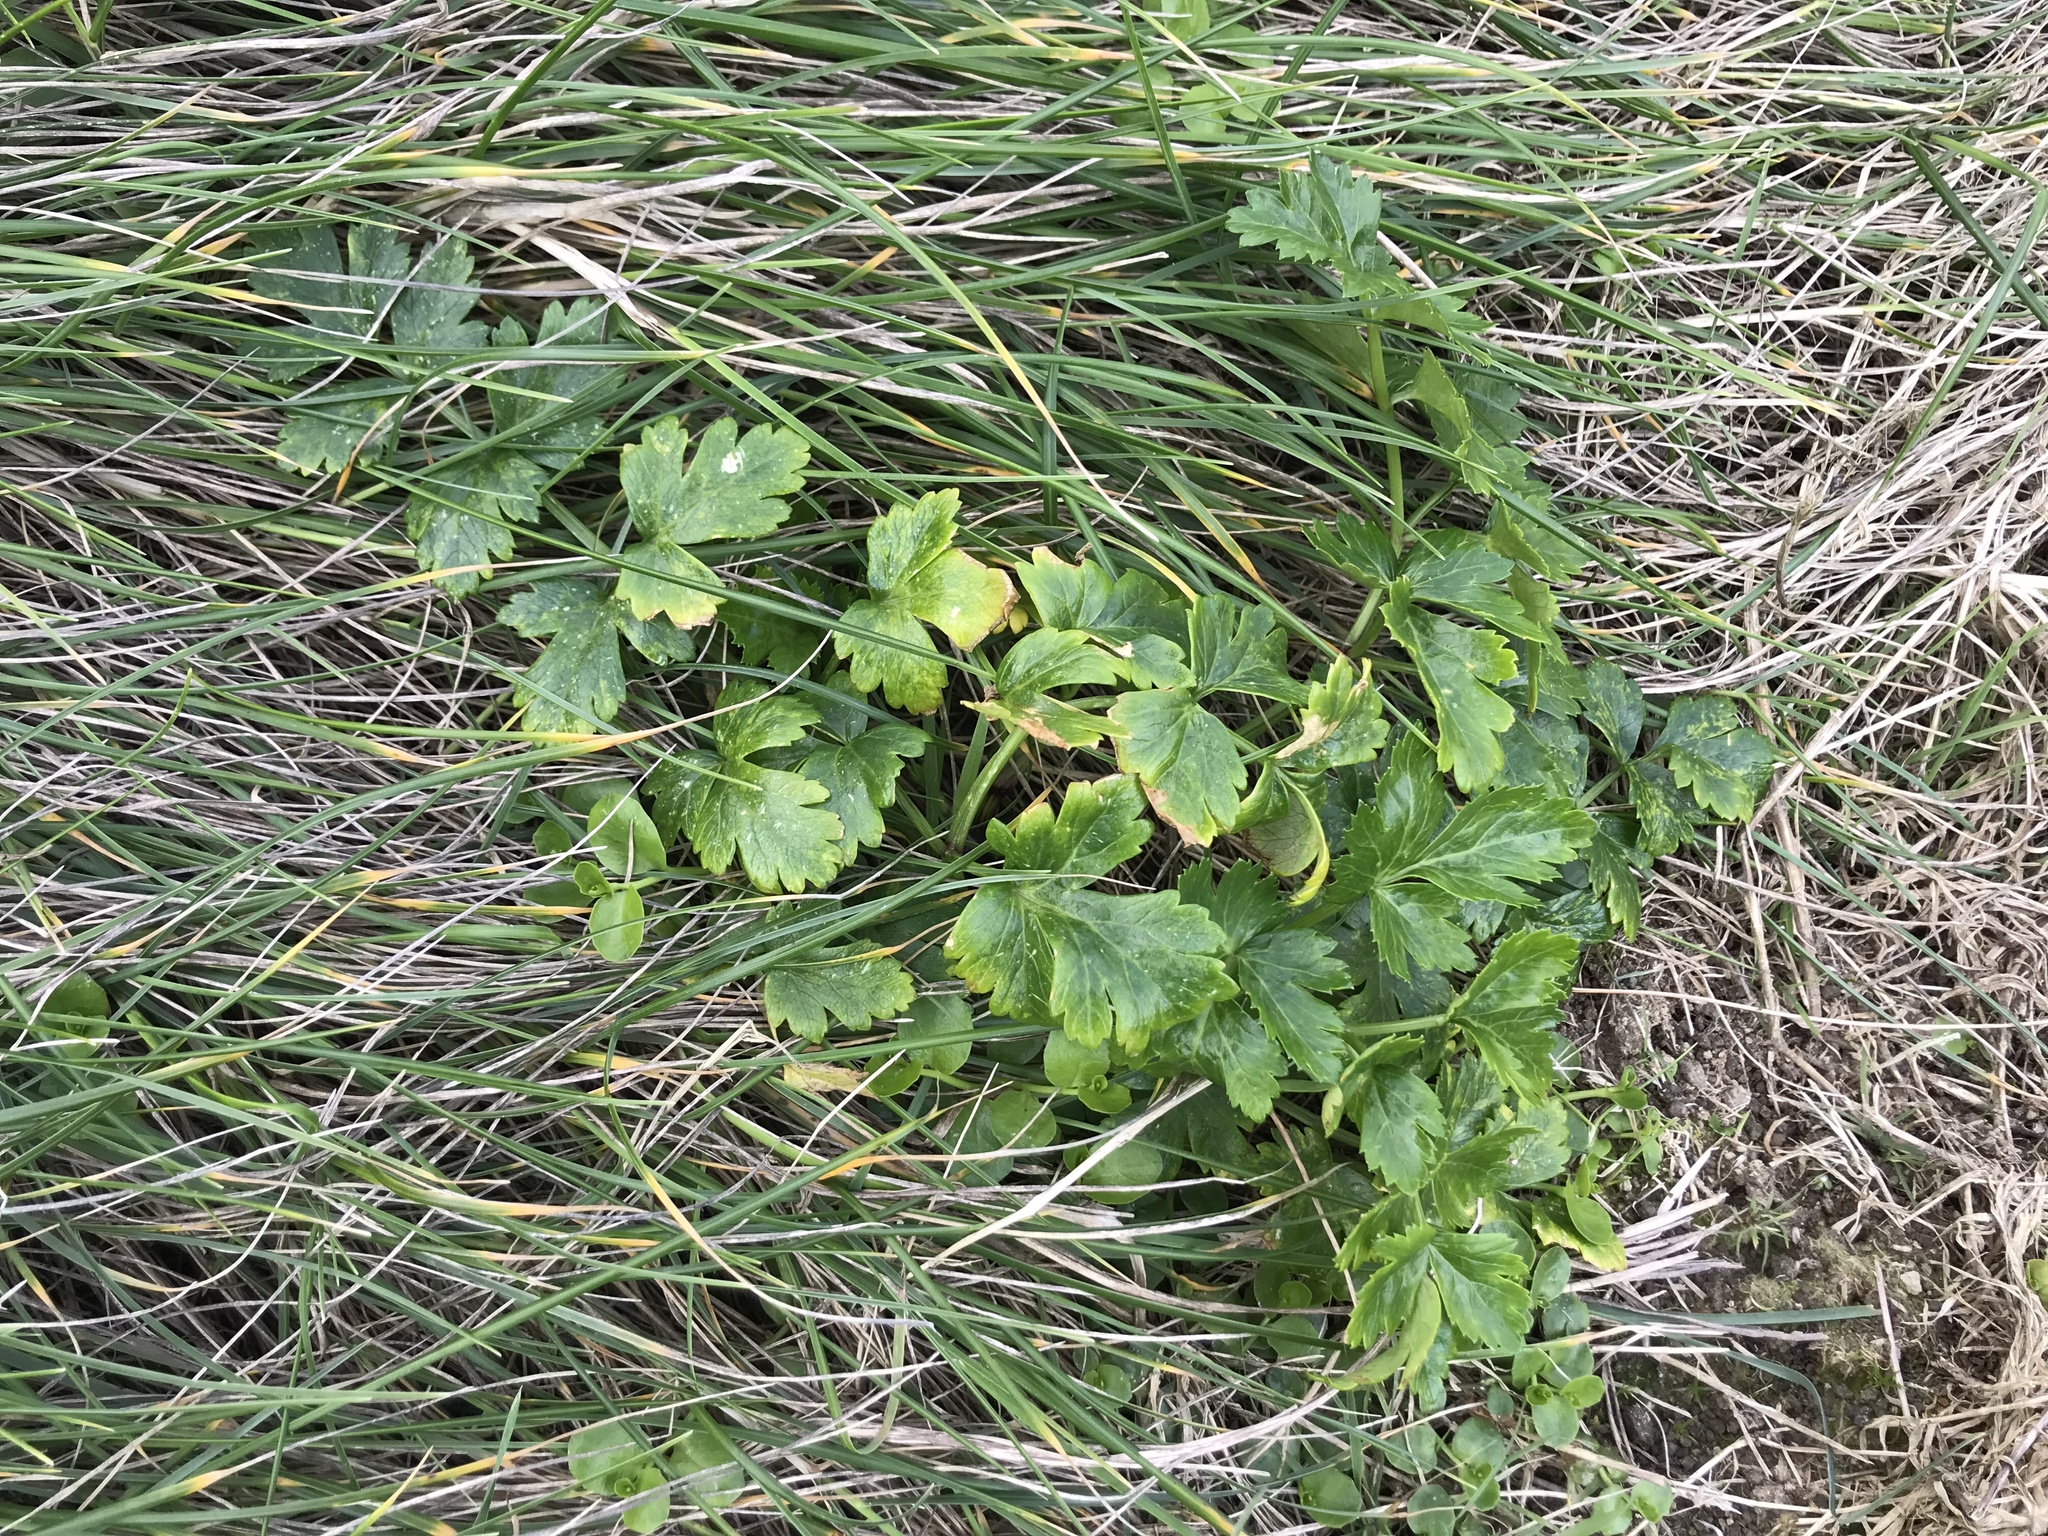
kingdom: Plantae
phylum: Tracheophyta
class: Magnoliopsida
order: Apiales
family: Apiaceae
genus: Apium
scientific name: Apium prostratum
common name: Prostrate marshwort
